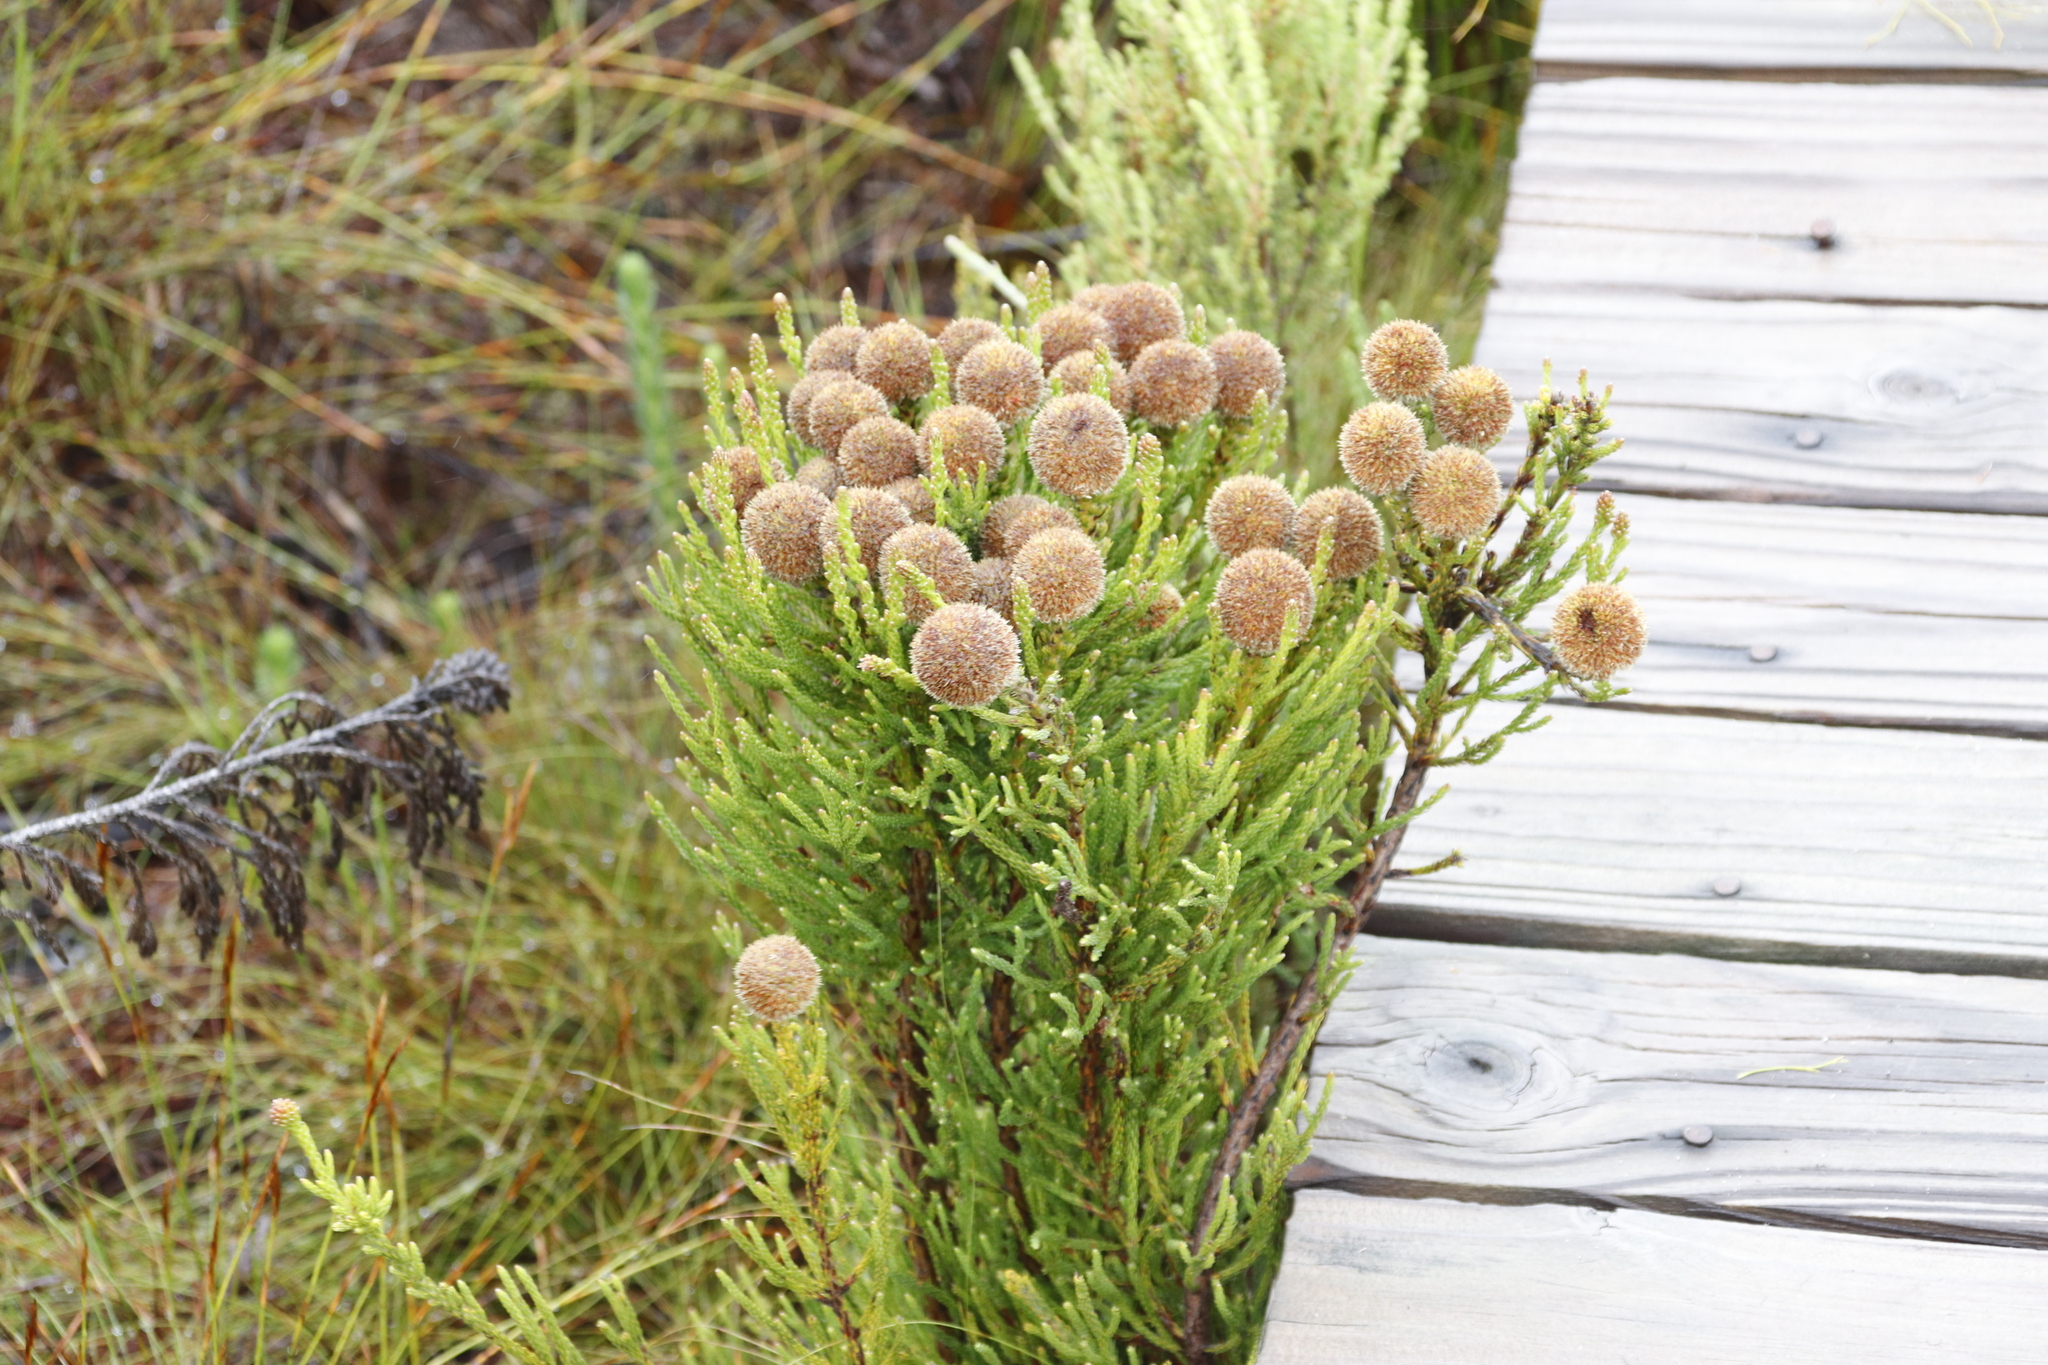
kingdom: Plantae
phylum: Tracheophyta
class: Magnoliopsida
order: Bruniales
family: Bruniaceae
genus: Brunia
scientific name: Brunia fragarioides
